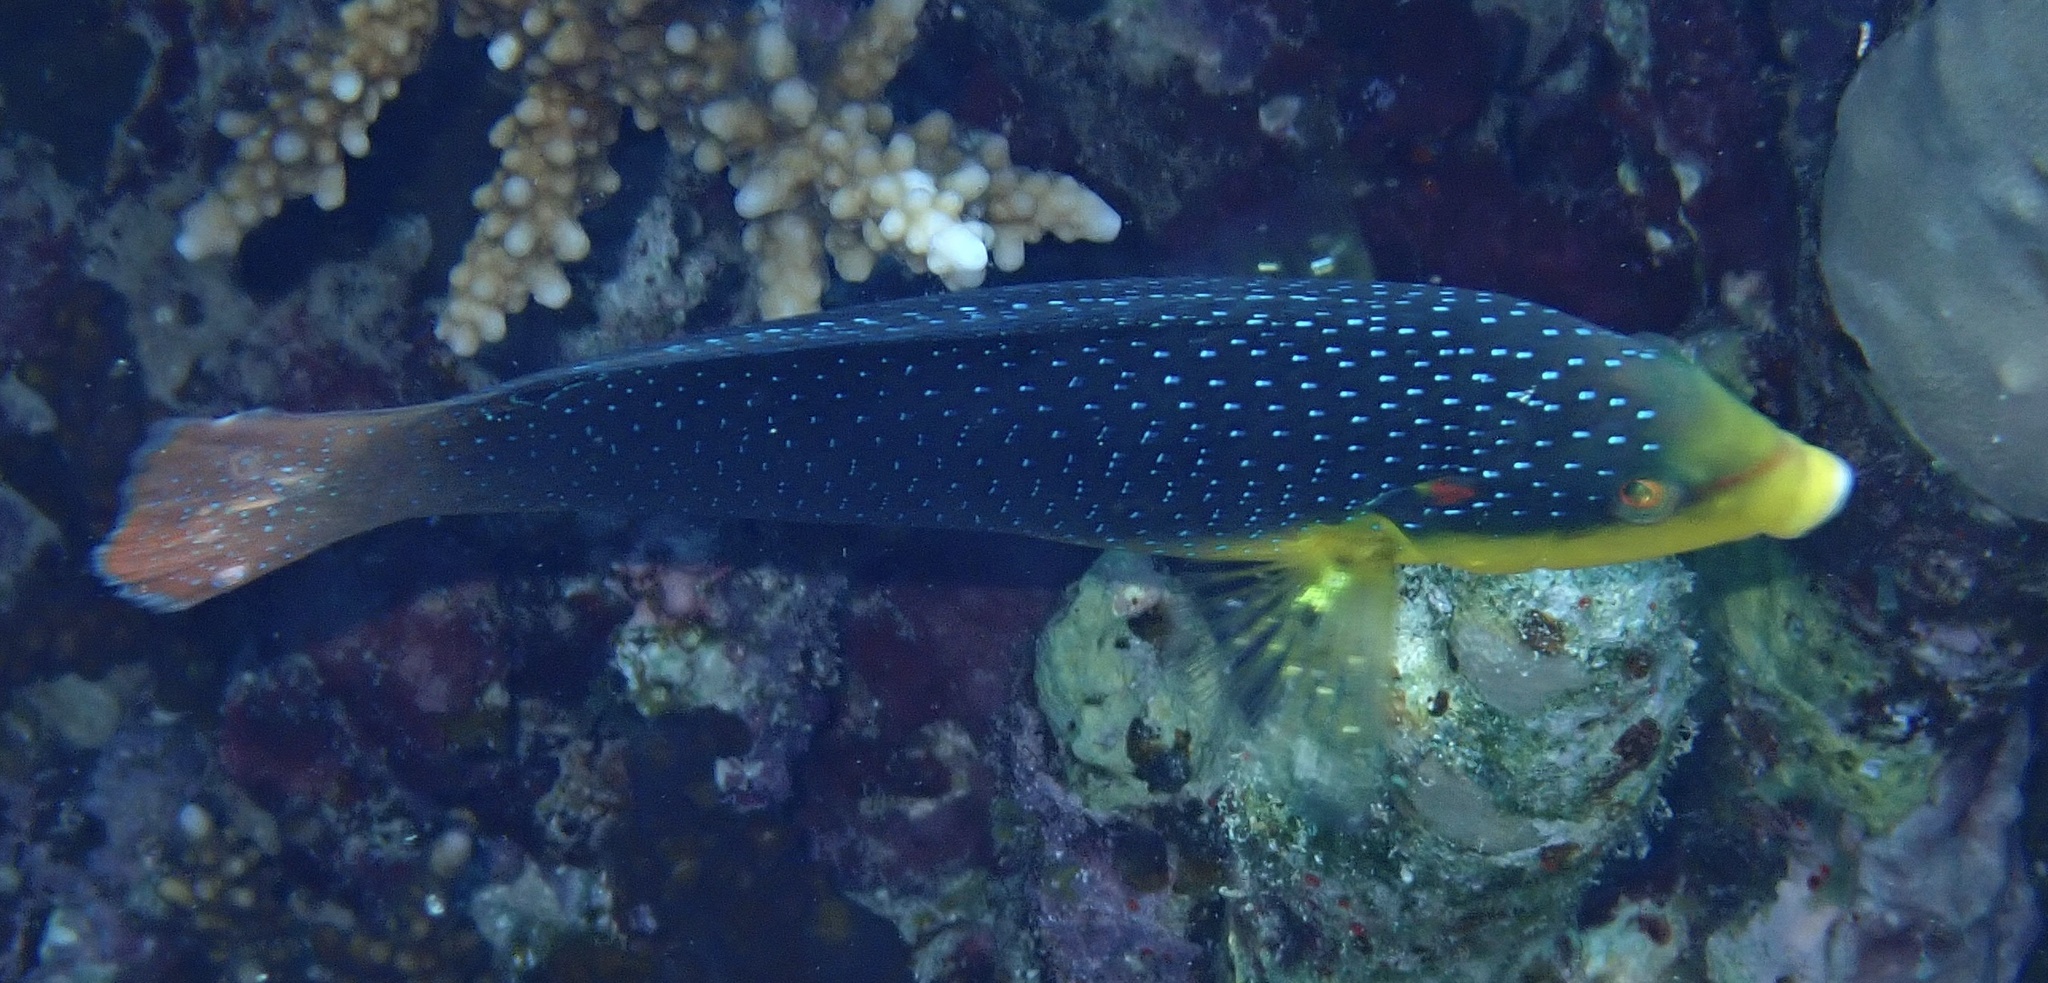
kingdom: Animalia
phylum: Chordata
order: Perciformes
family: Labridae
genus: Anampses
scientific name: Anampses twistii
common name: Yellowbreasted wrasse
